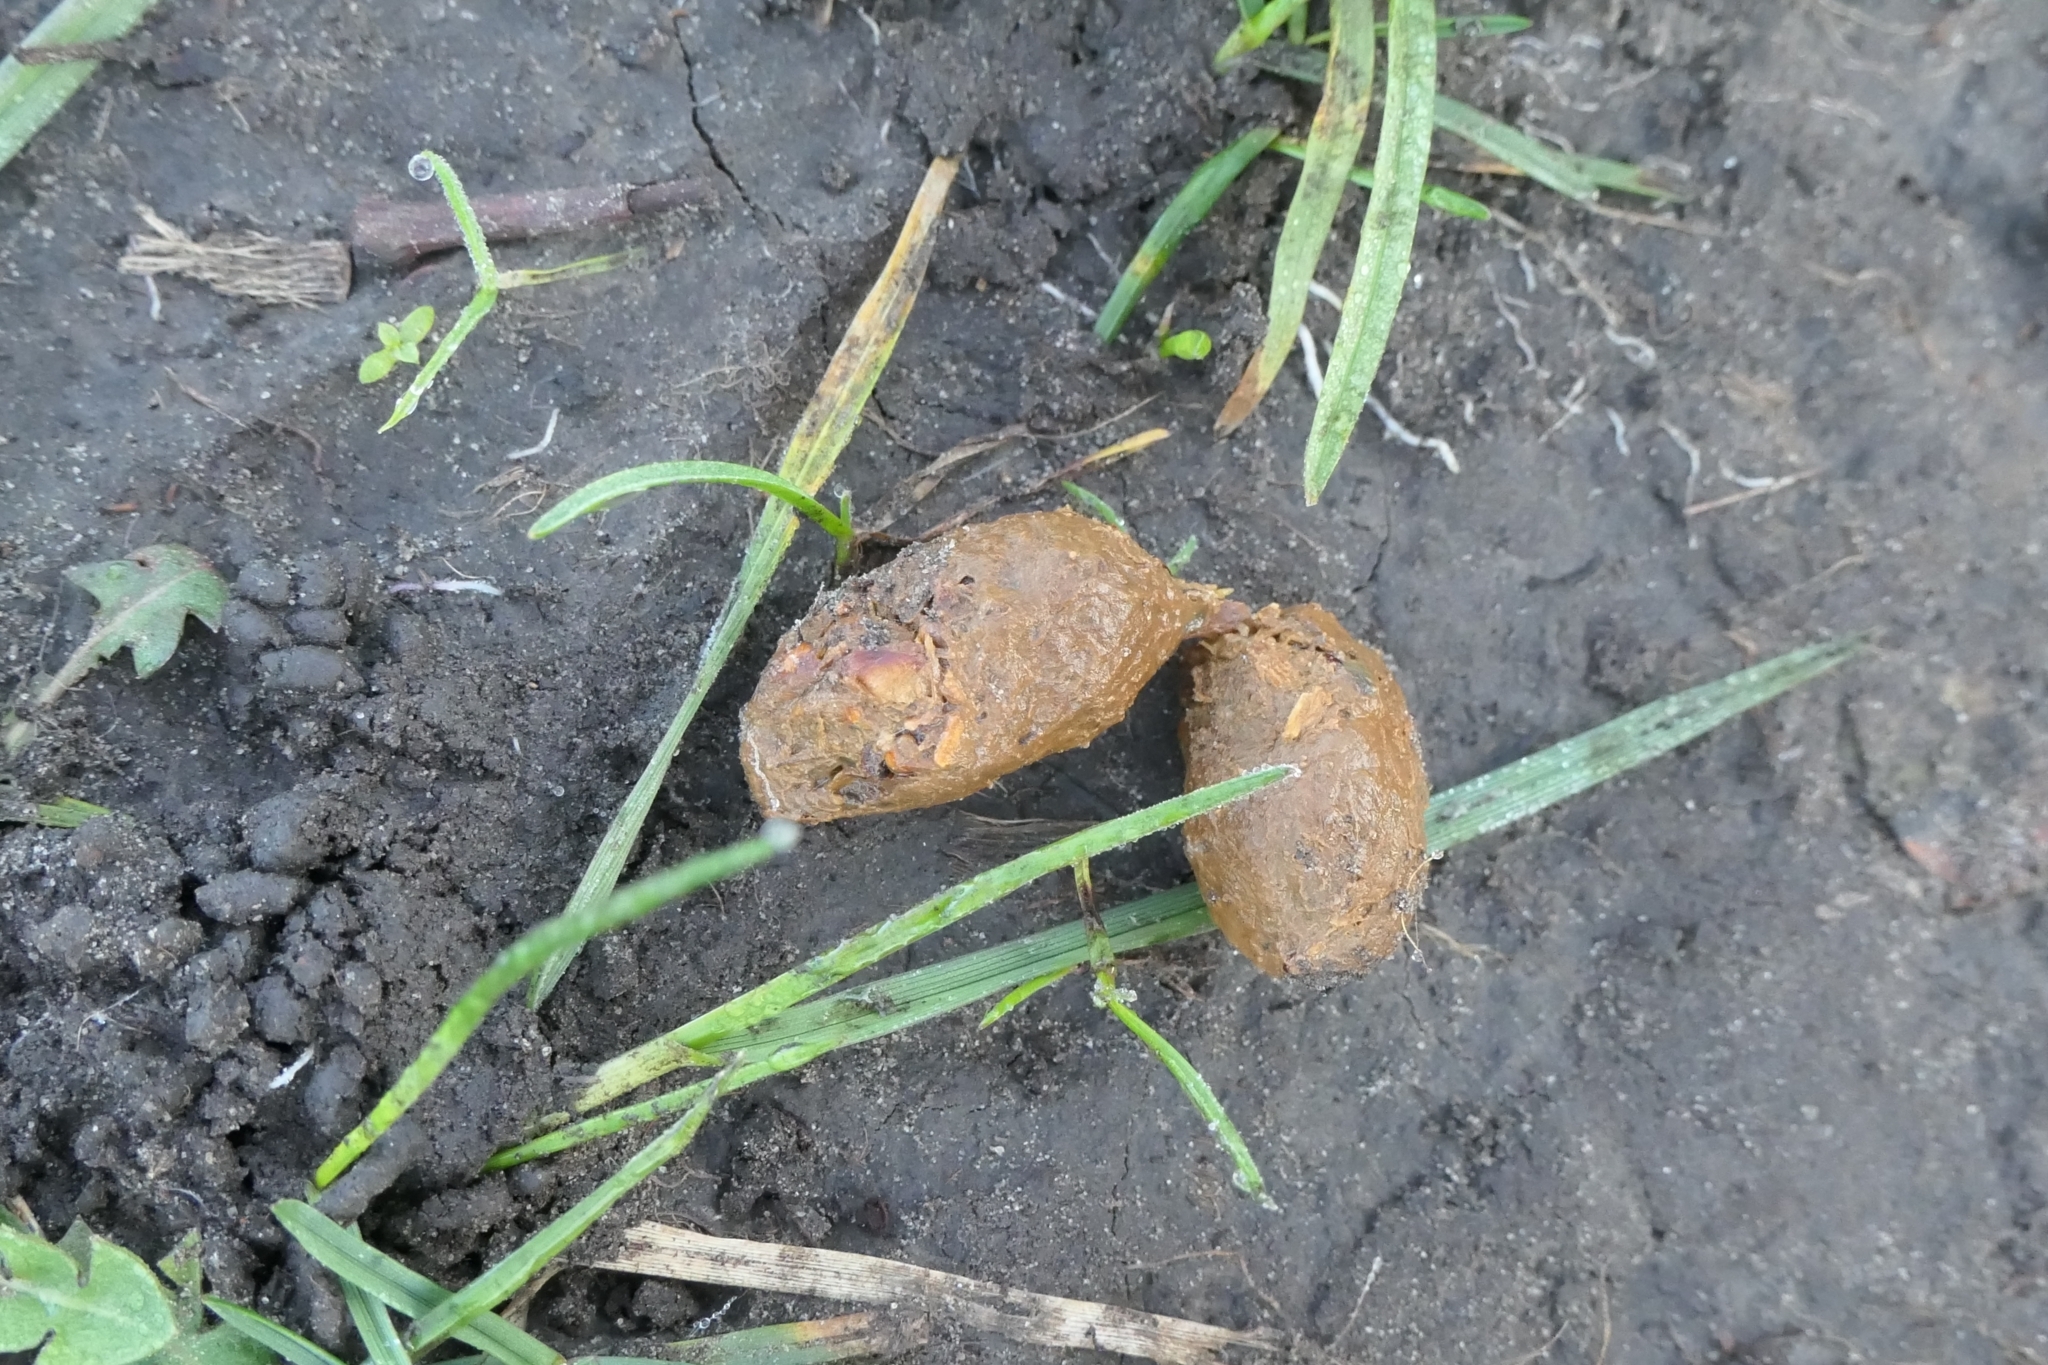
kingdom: Animalia
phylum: Chordata
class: Mammalia
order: Diprotodontia
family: Phalangeridae
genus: Trichosurus
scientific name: Trichosurus vulpecula
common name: Common brushtail
